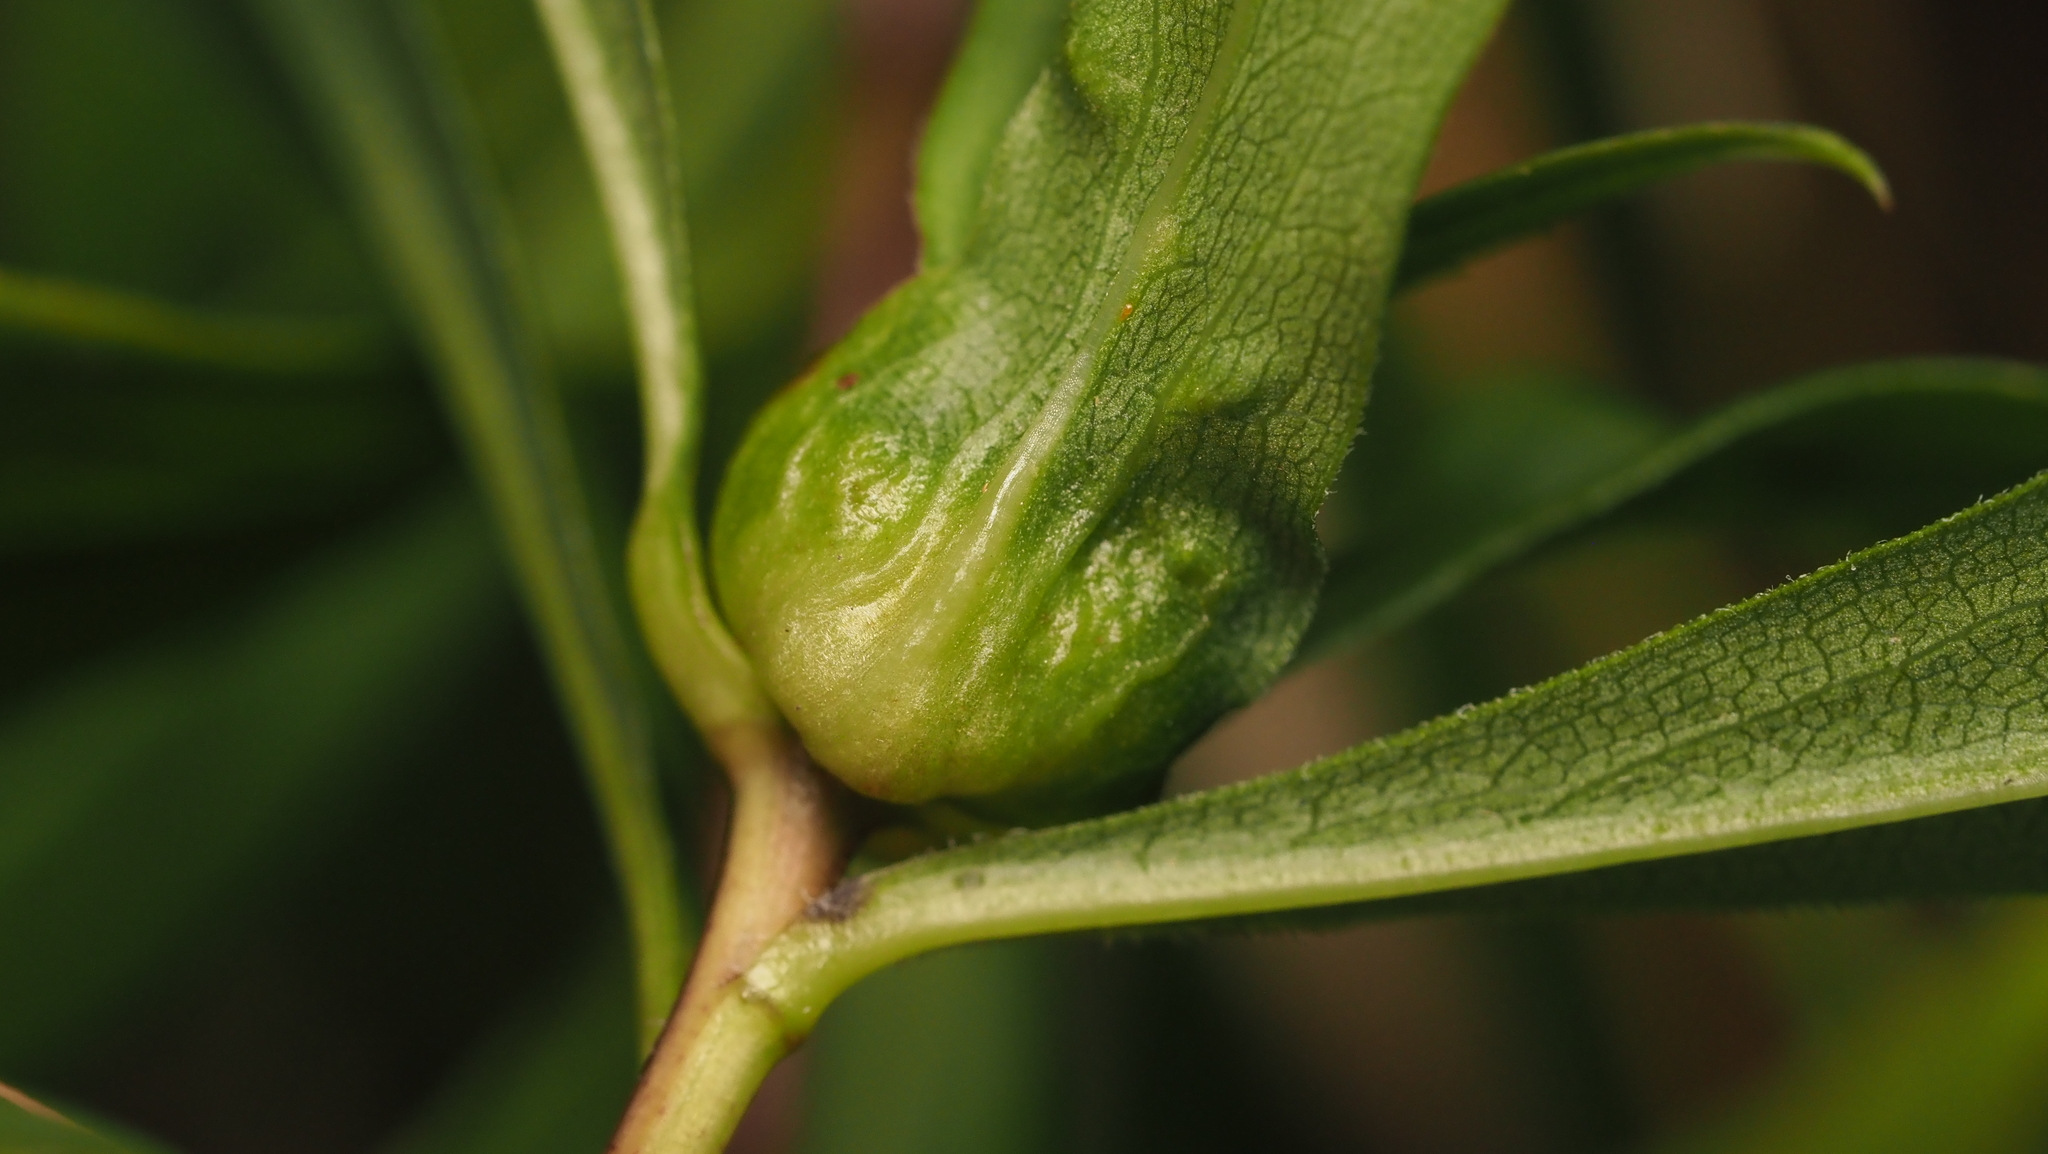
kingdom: Animalia
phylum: Arthropoda
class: Insecta
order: Diptera
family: Cecidomyiidae
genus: Dasineura
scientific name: Dasineura folliculi
